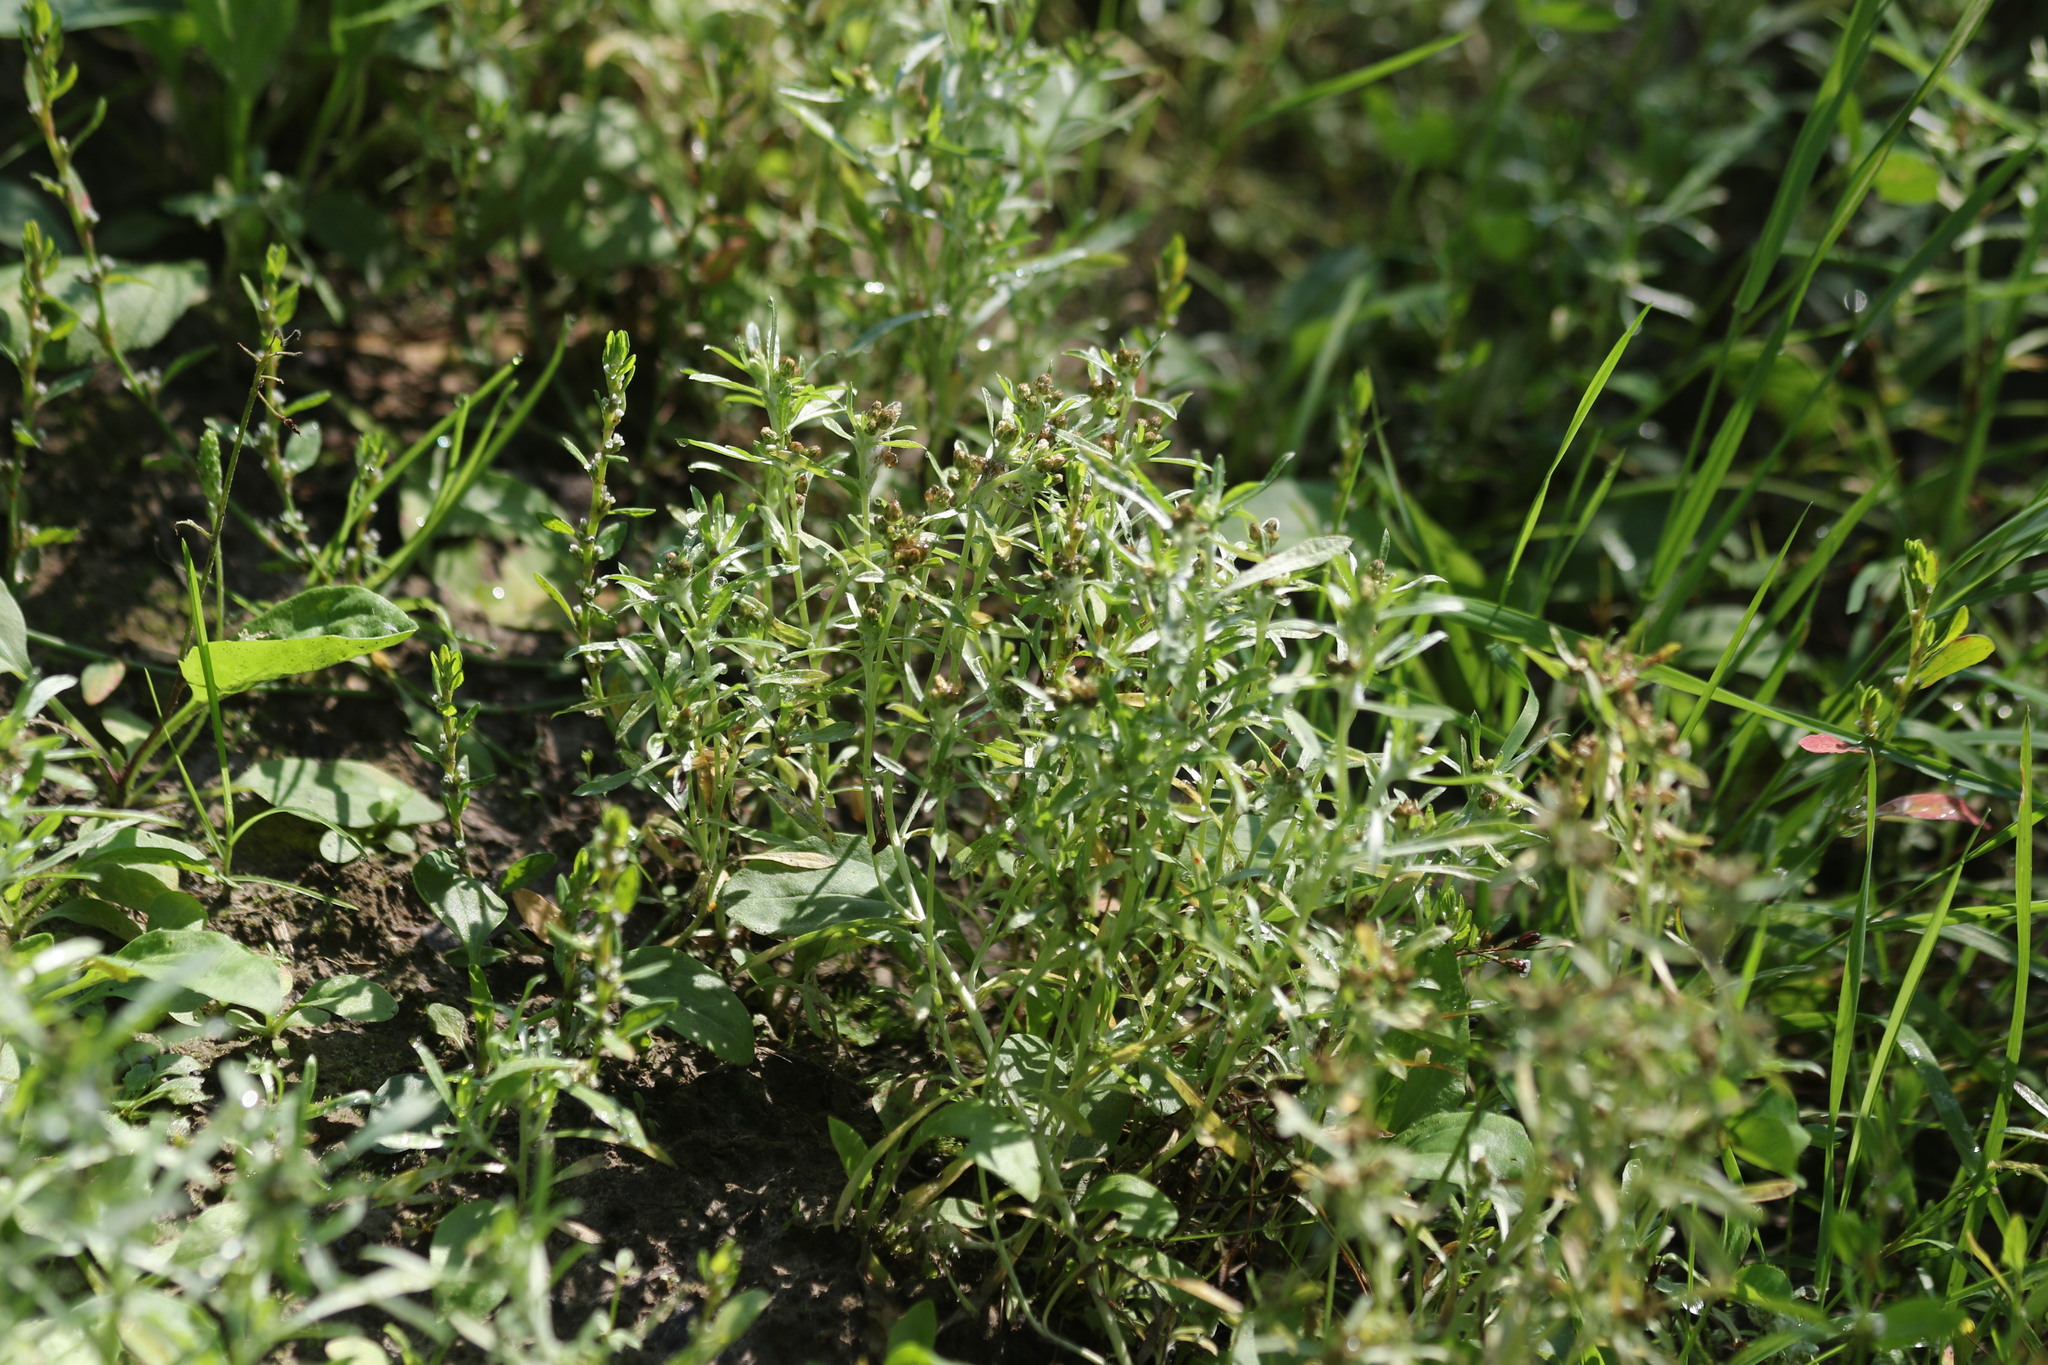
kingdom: Plantae
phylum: Tracheophyta
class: Magnoliopsida
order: Asterales
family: Asteraceae
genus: Gnaphalium
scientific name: Gnaphalium uliginosum
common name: Marsh cudweed
